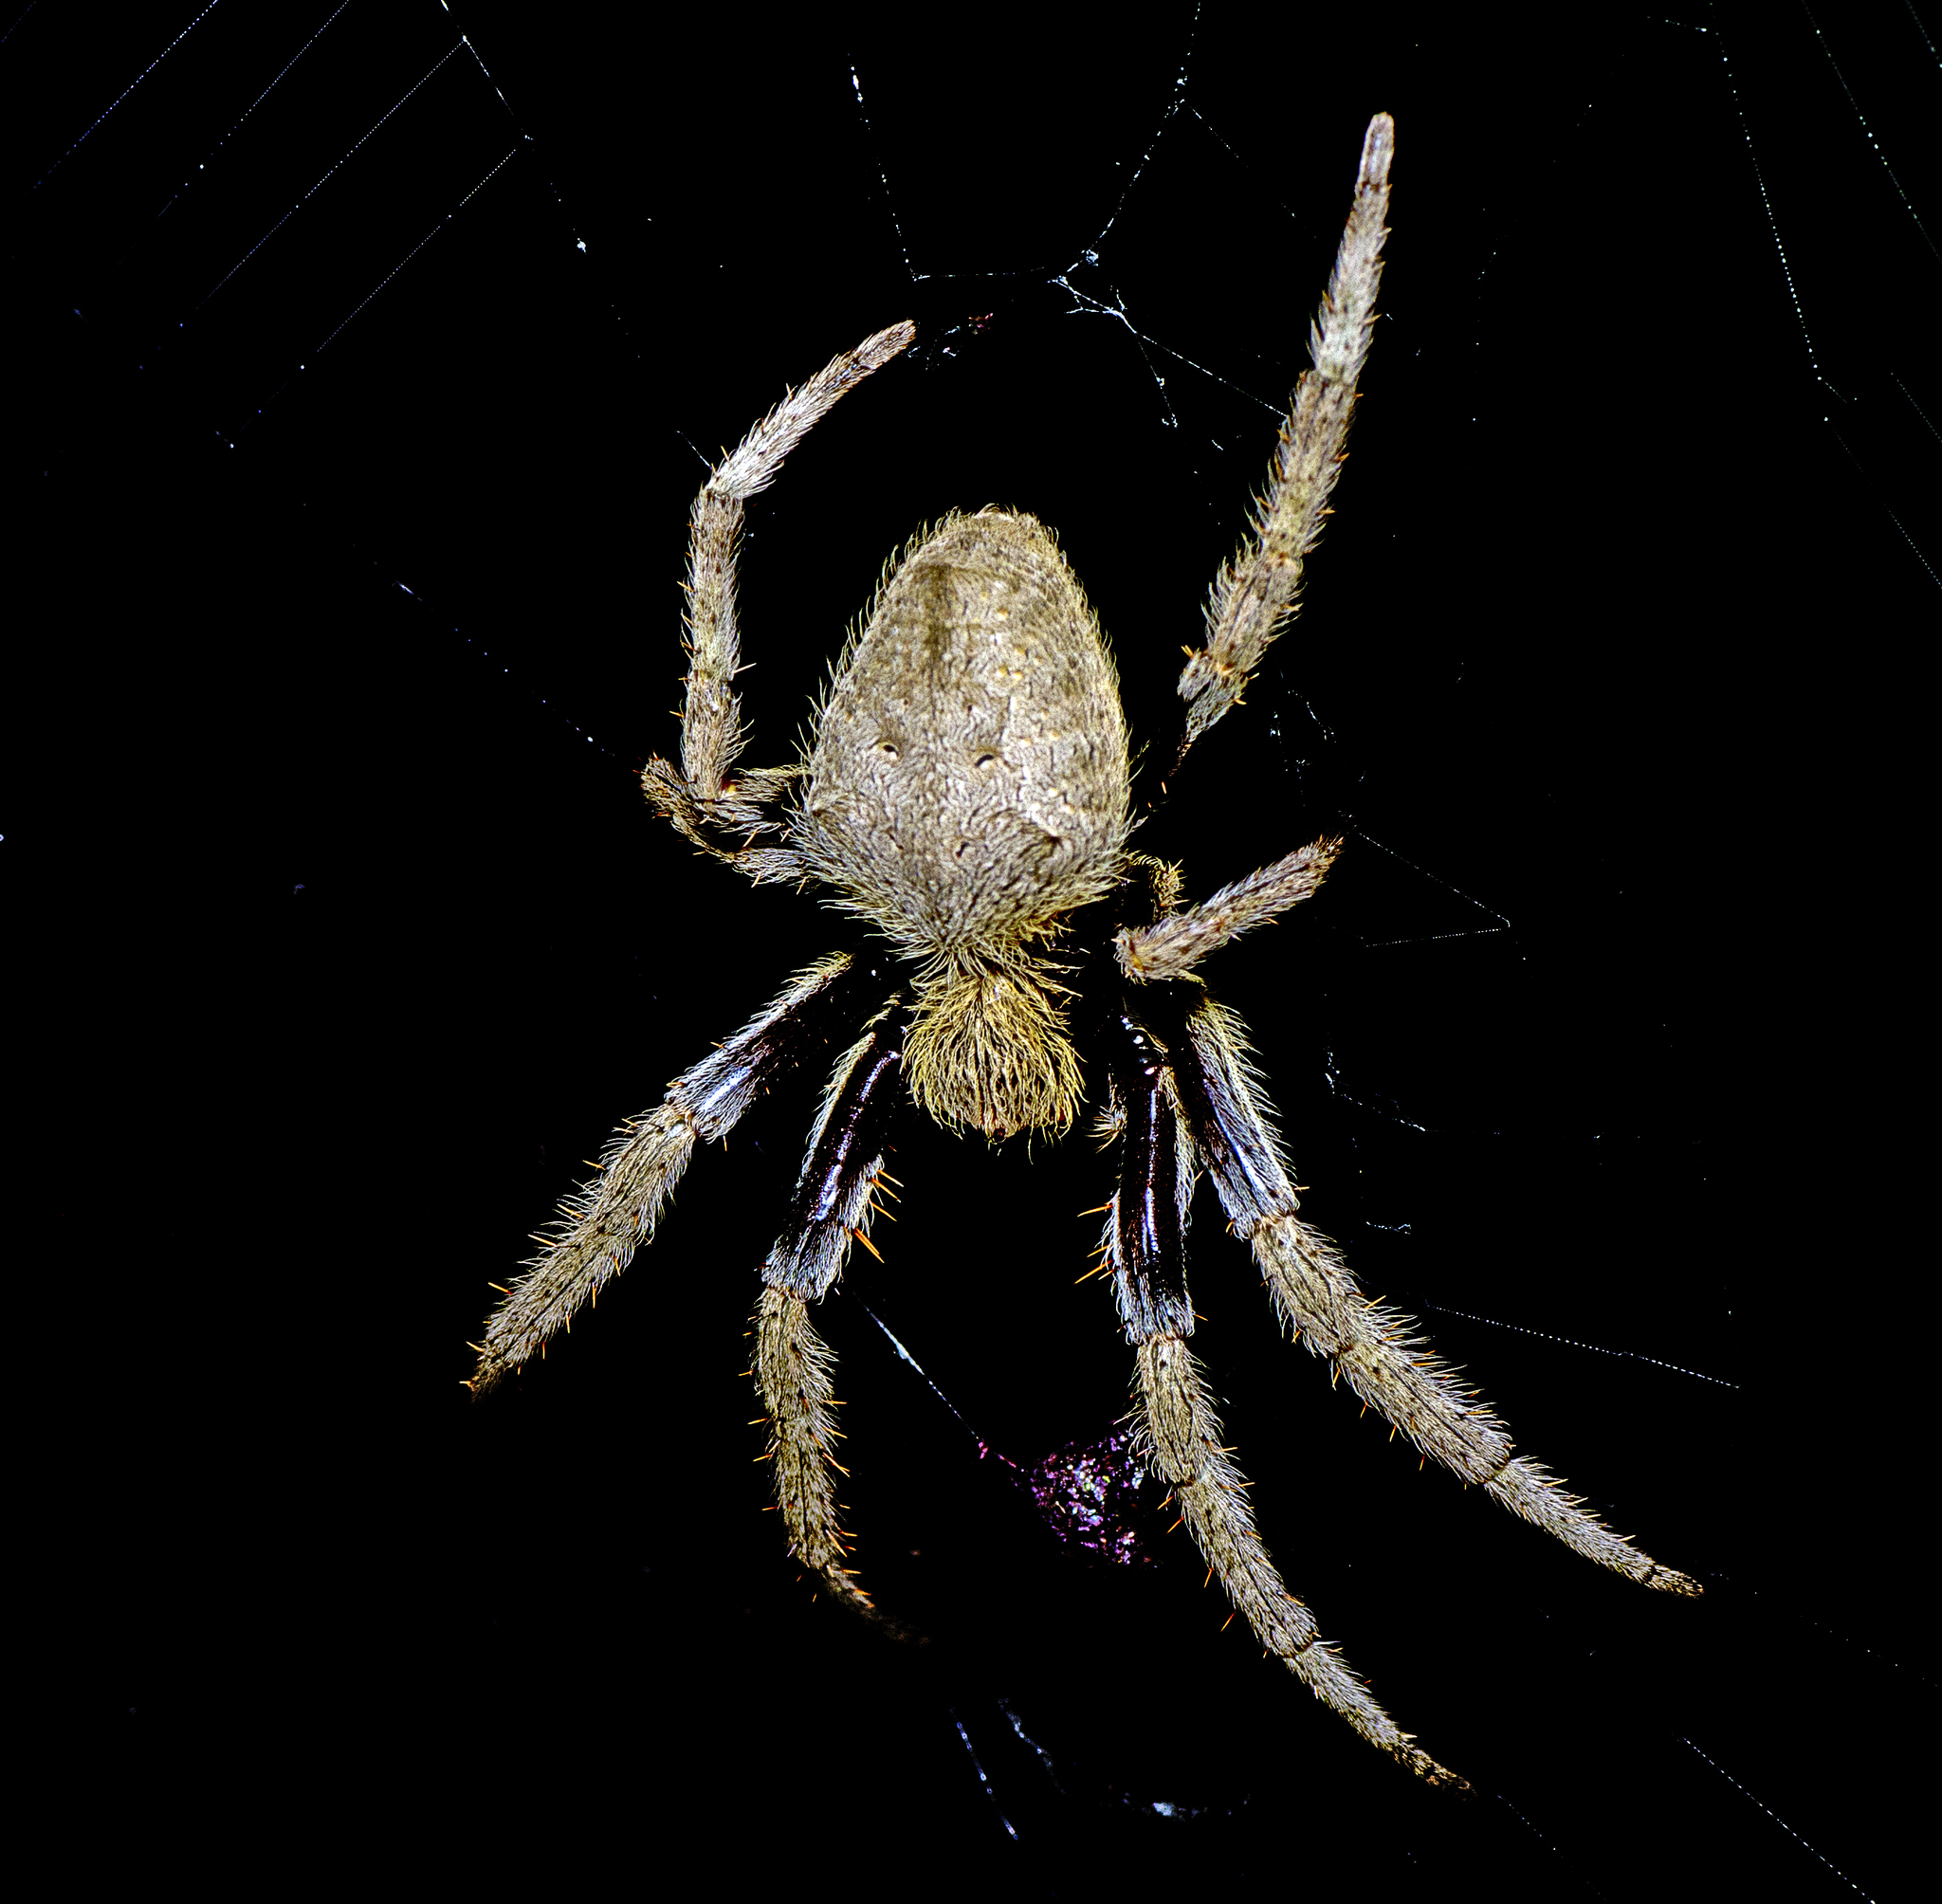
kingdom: Animalia
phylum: Arthropoda
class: Arachnida
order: Araneae
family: Araneidae
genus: Hortophora
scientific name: Hortophora transmarina
